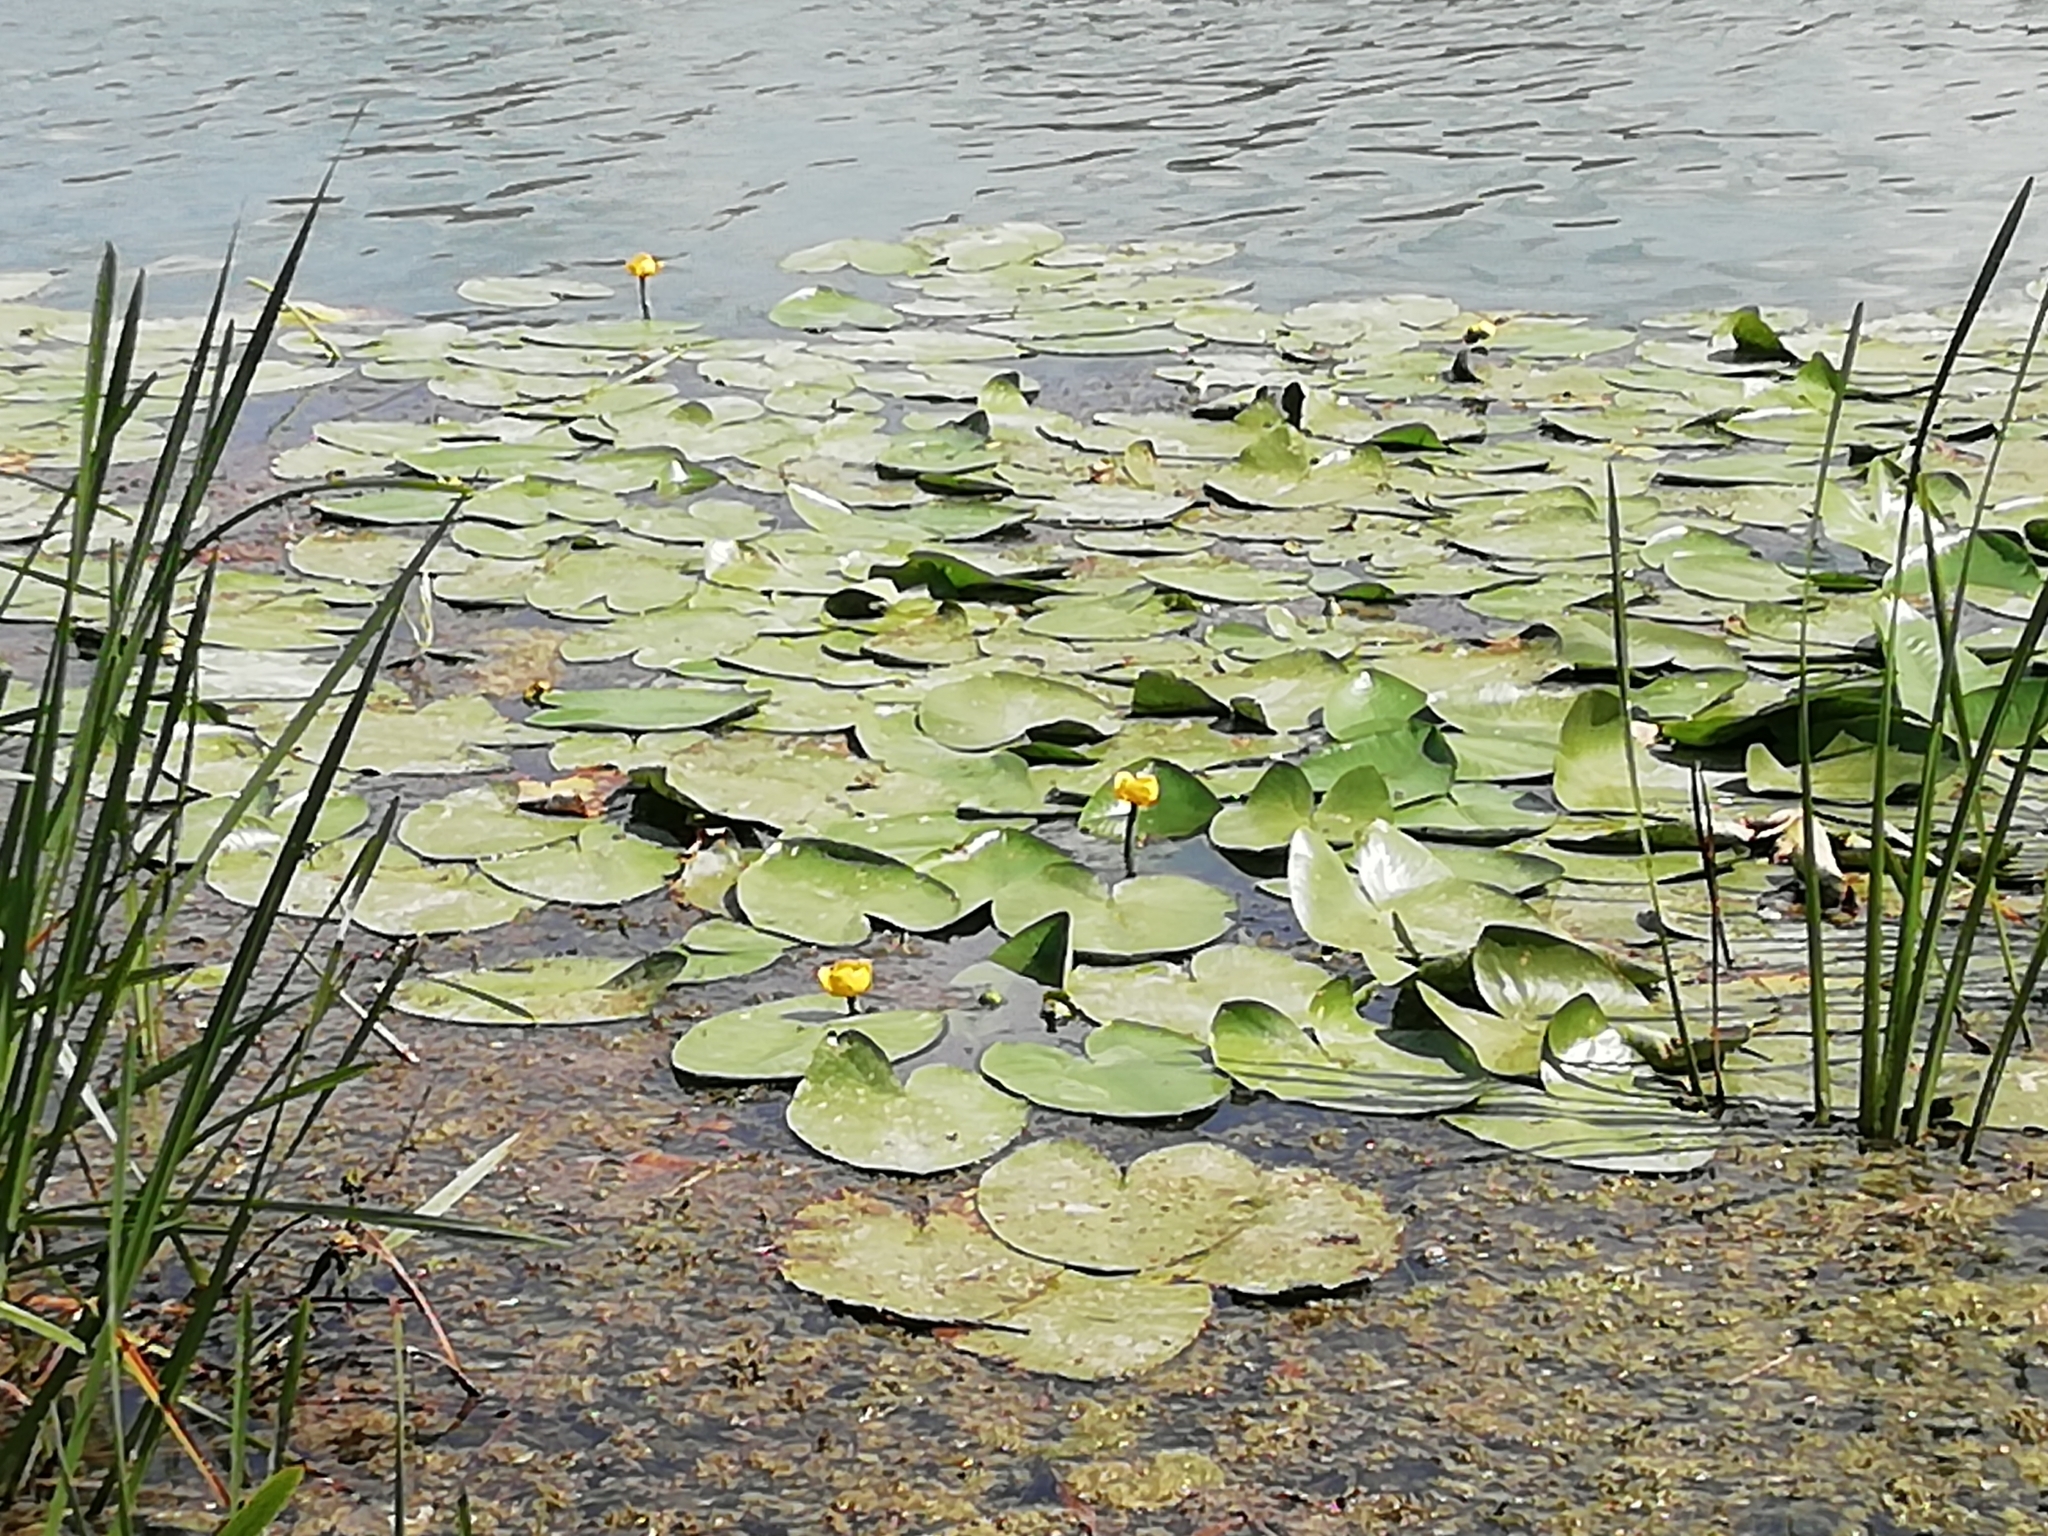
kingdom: Plantae
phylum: Tracheophyta
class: Magnoliopsida
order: Nymphaeales
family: Nymphaeaceae
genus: Nuphar
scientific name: Nuphar lutea
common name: Yellow water-lily
